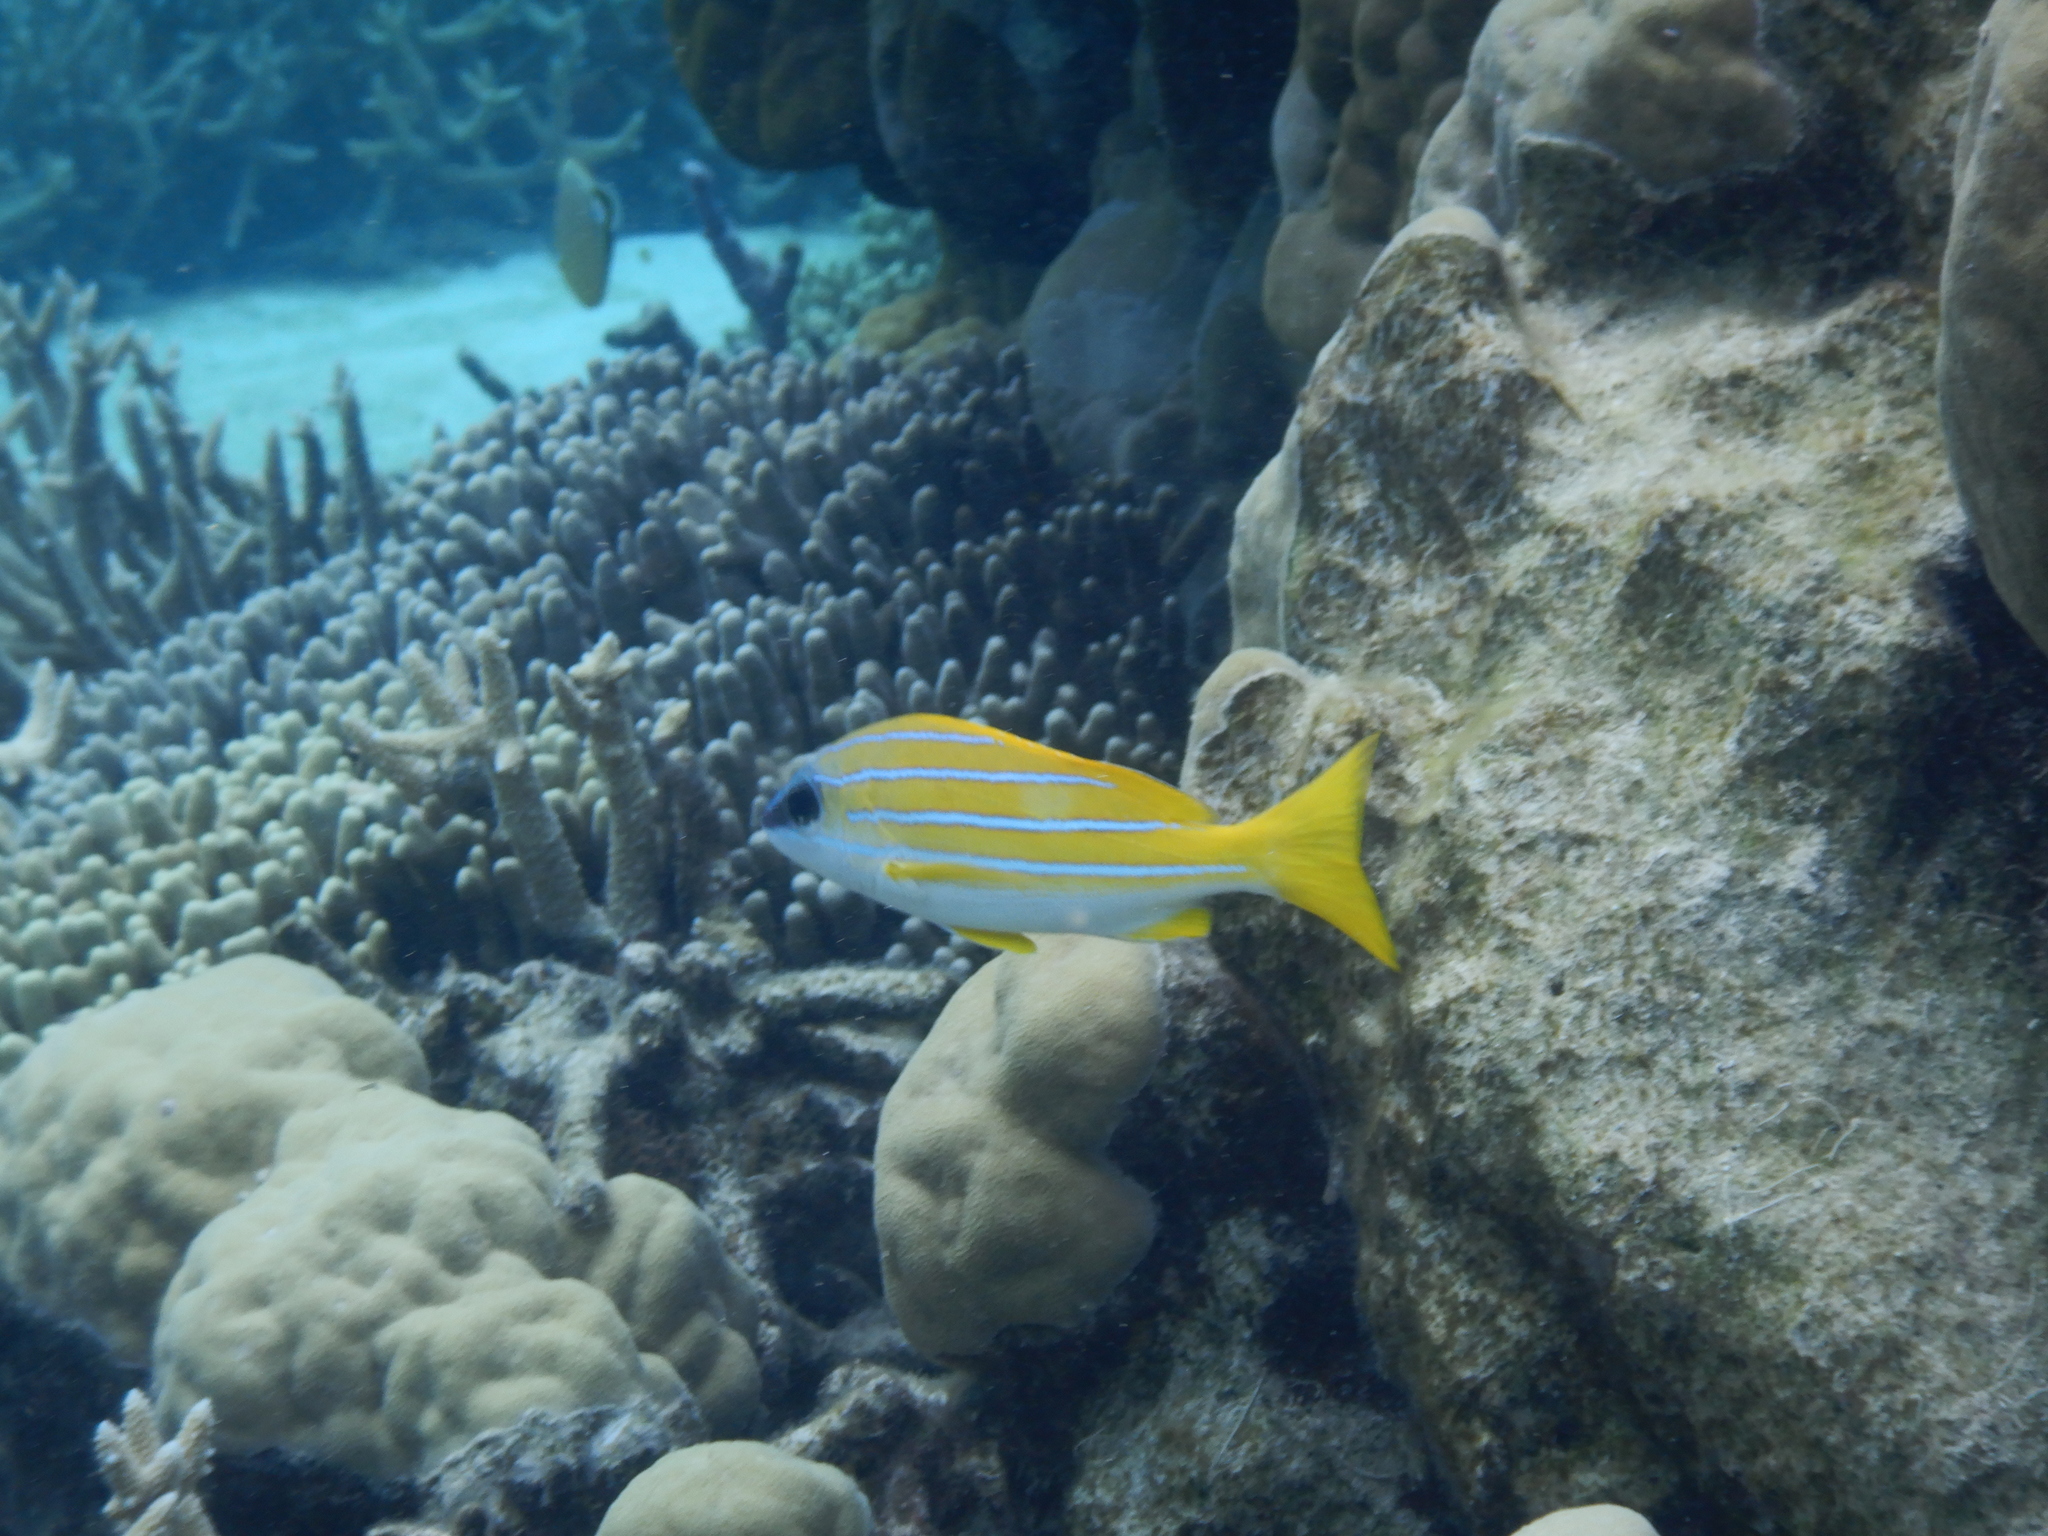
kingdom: Animalia
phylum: Chordata
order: Perciformes
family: Lutjanidae
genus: Lutjanus
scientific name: Lutjanus kasmira
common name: Common bluestripe snapper
